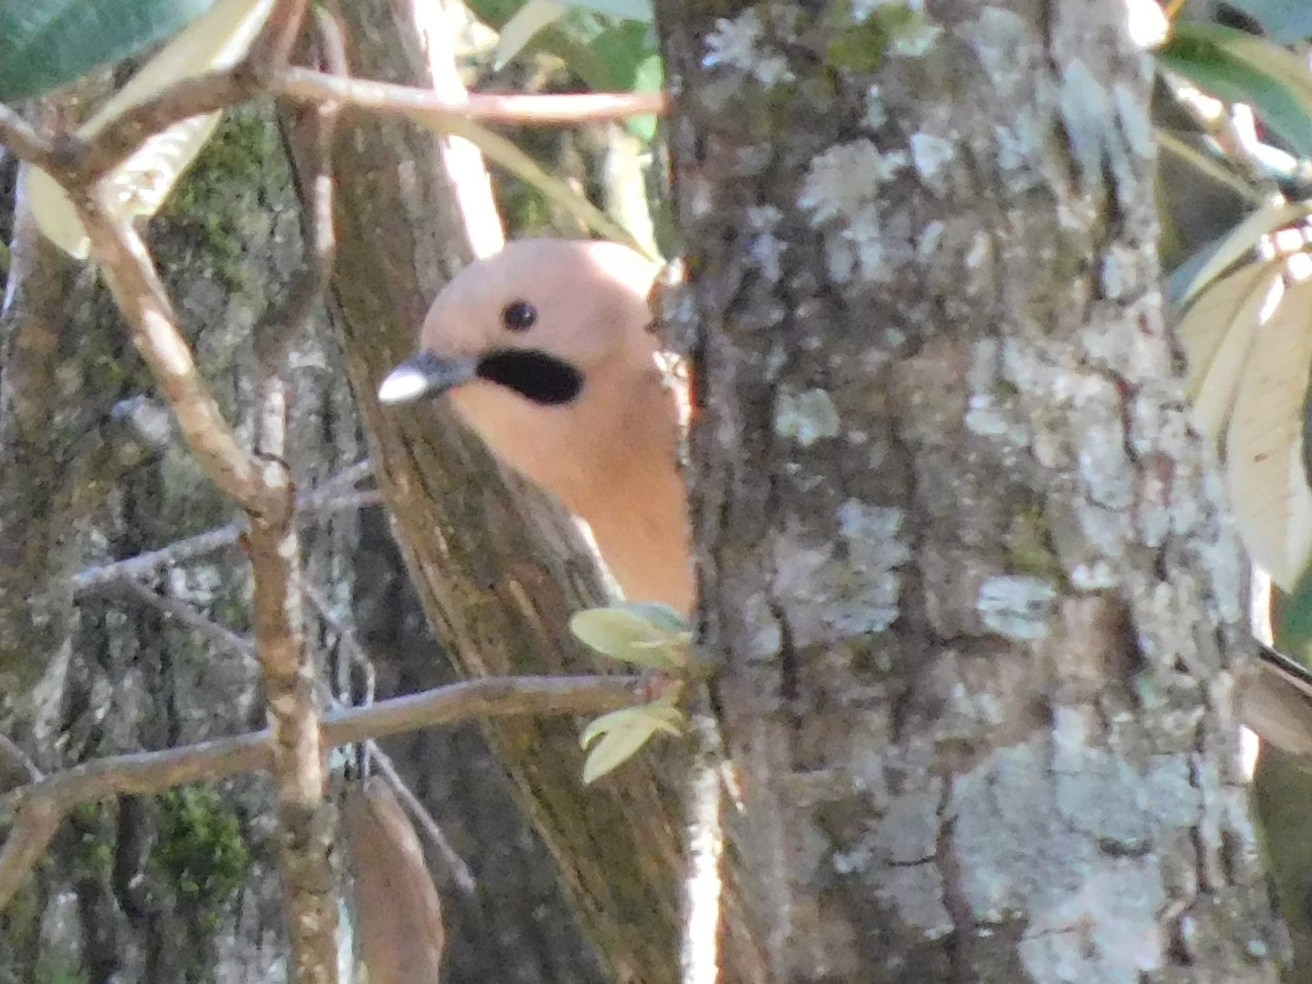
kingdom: Animalia
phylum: Chordata
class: Aves
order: Passeriformes
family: Corvidae
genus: Garrulus
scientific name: Garrulus glandarius
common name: Eurasian jay
